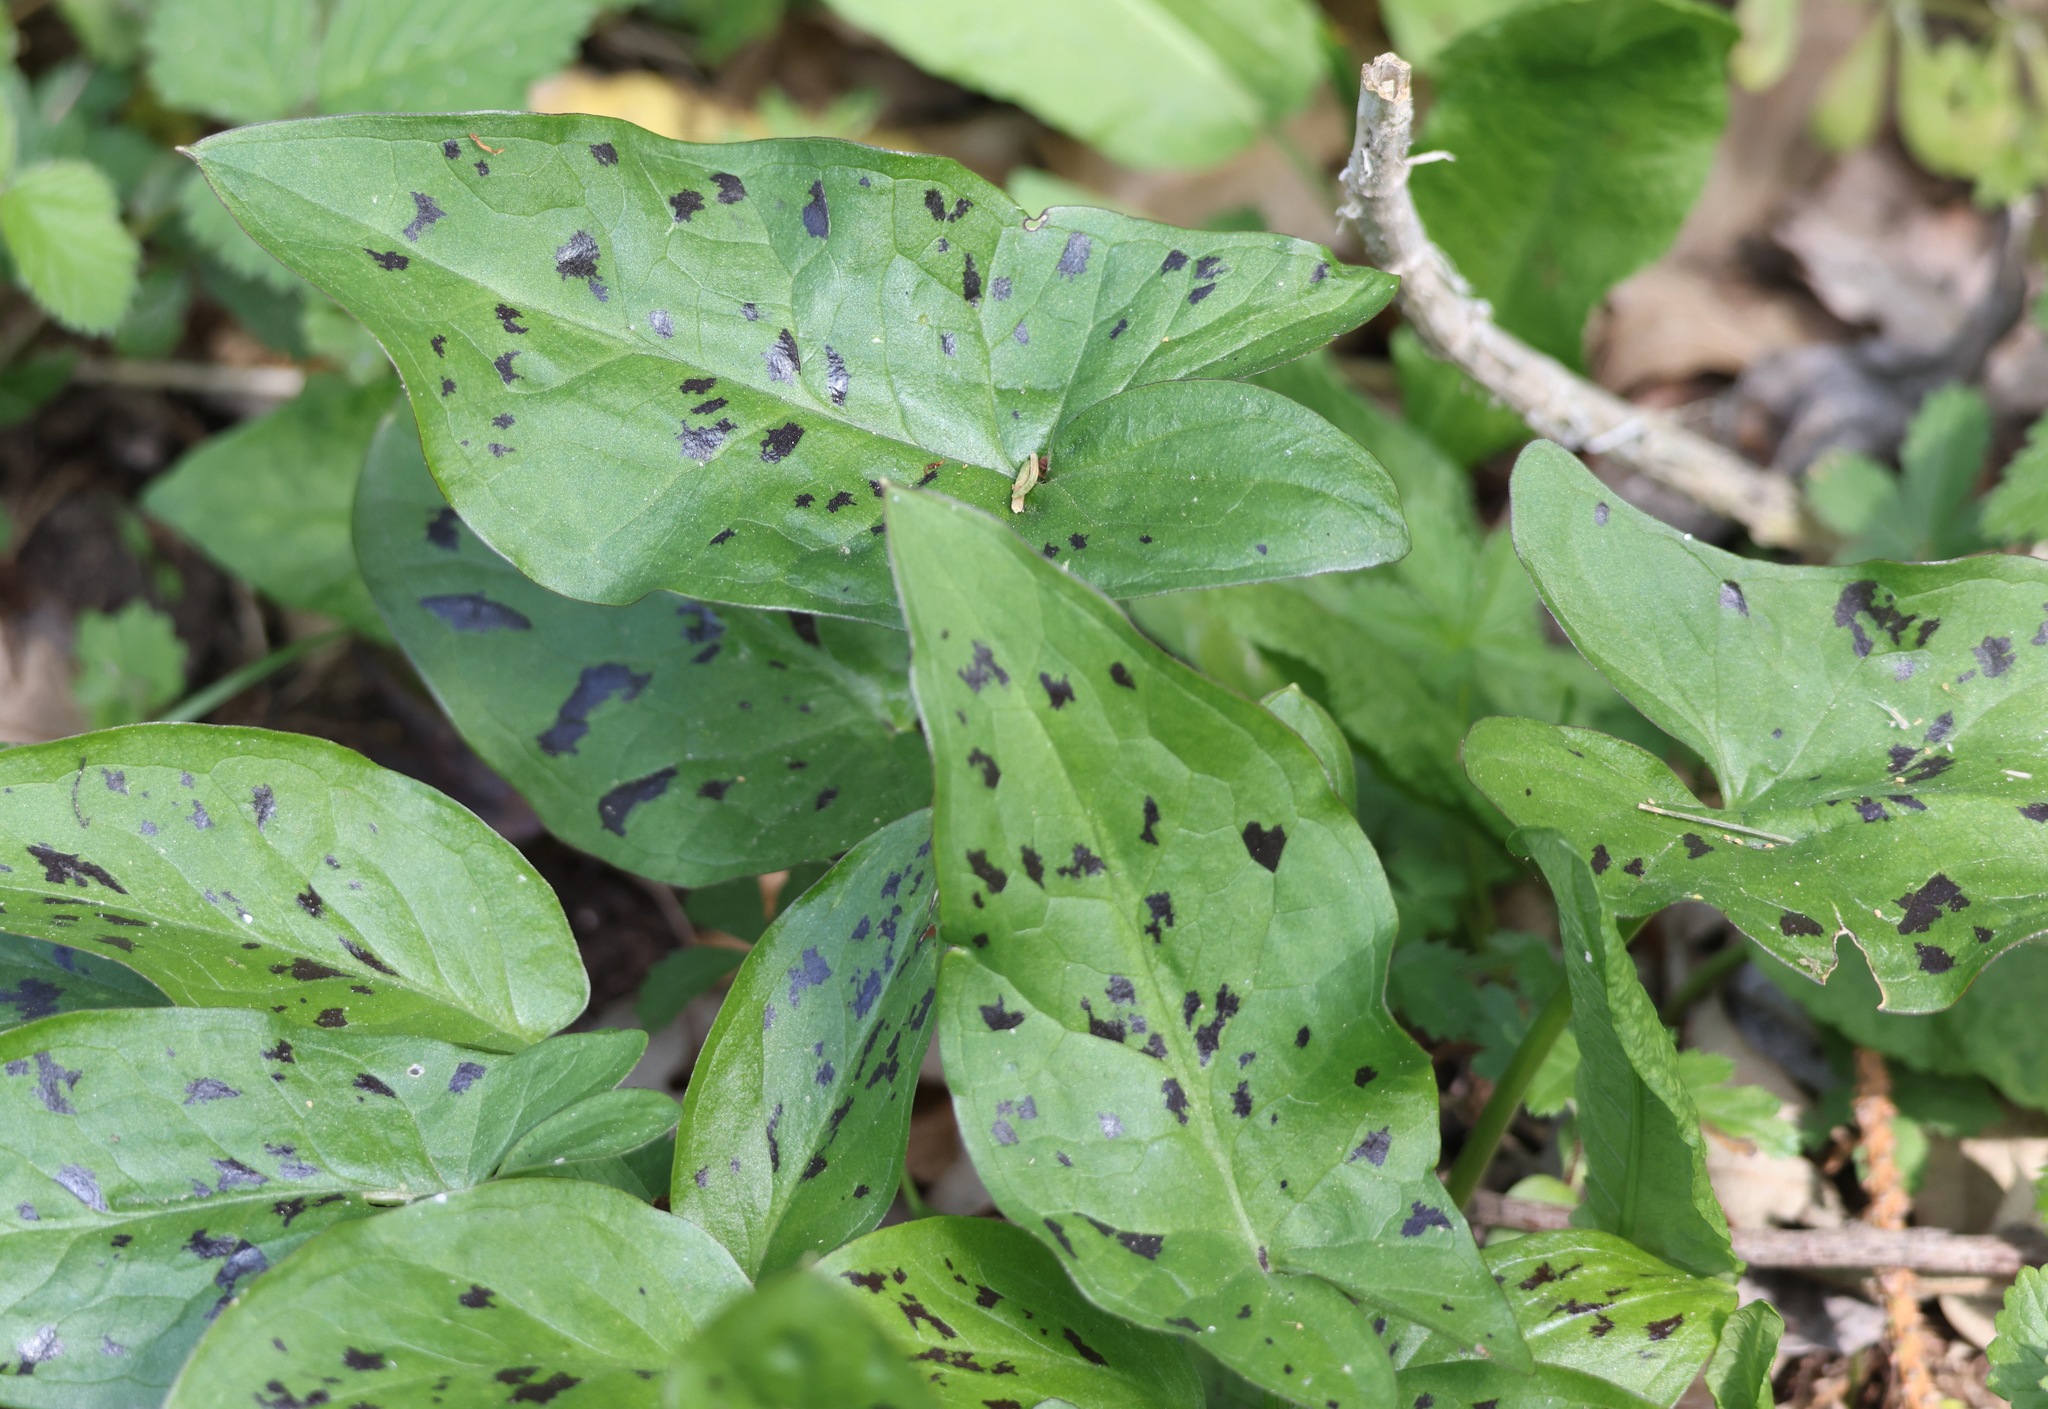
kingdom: Plantae
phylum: Tracheophyta
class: Liliopsida
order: Alismatales
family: Araceae
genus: Arum
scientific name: Arum maculatum
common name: Lords-and-ladies
